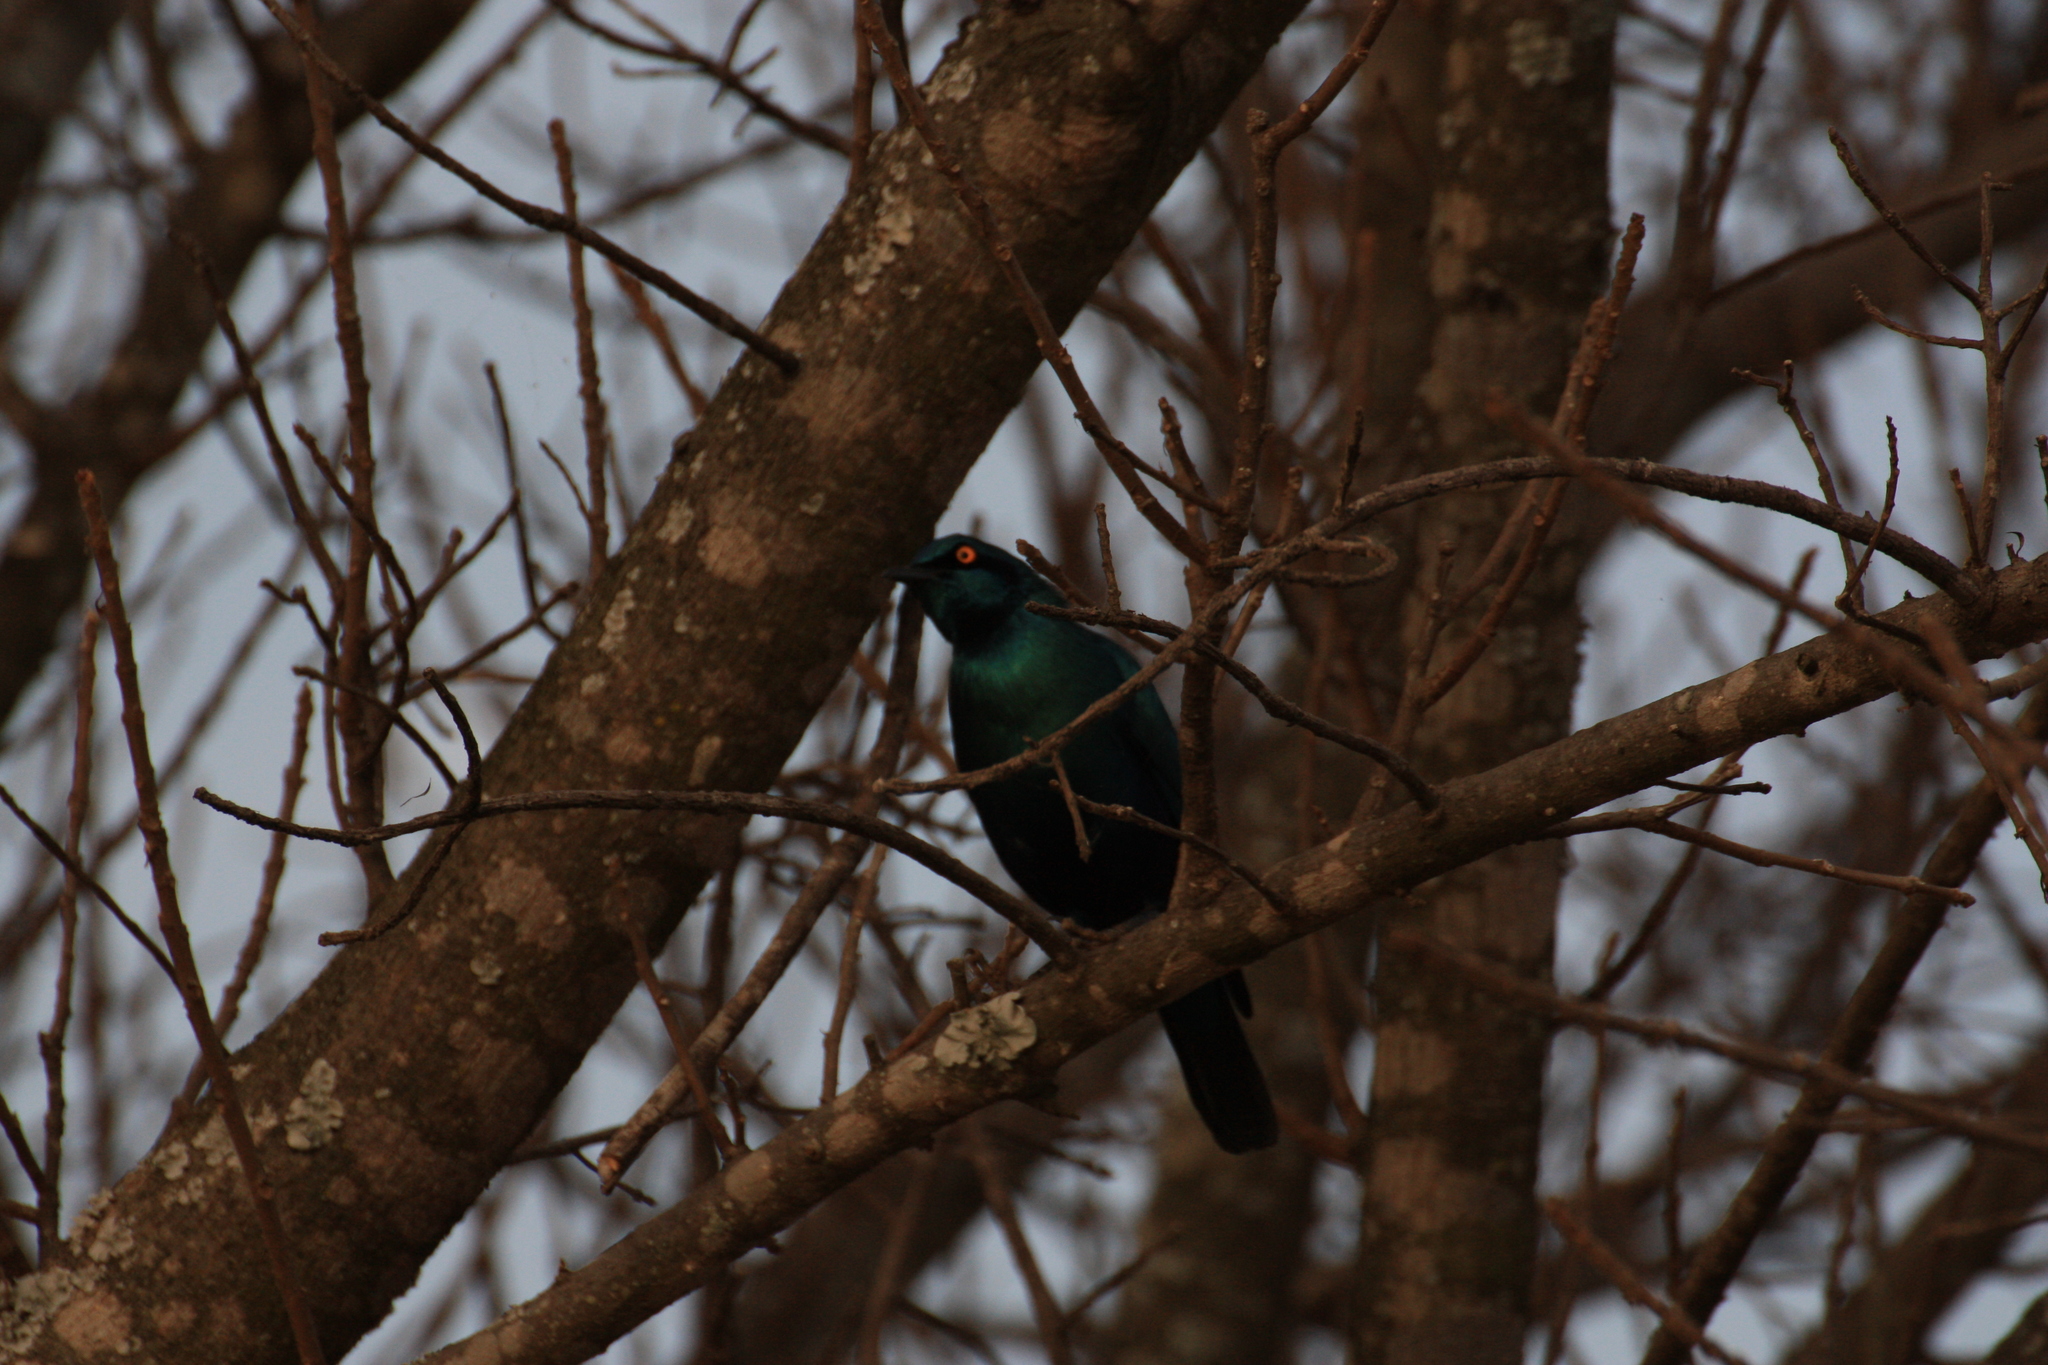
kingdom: Animalia
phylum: Chordata
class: Aves
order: Passeriformes
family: Sturnidae
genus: Lamprotornis
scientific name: Lamprotornis chalybaeus
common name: Greater blue-eared starling
